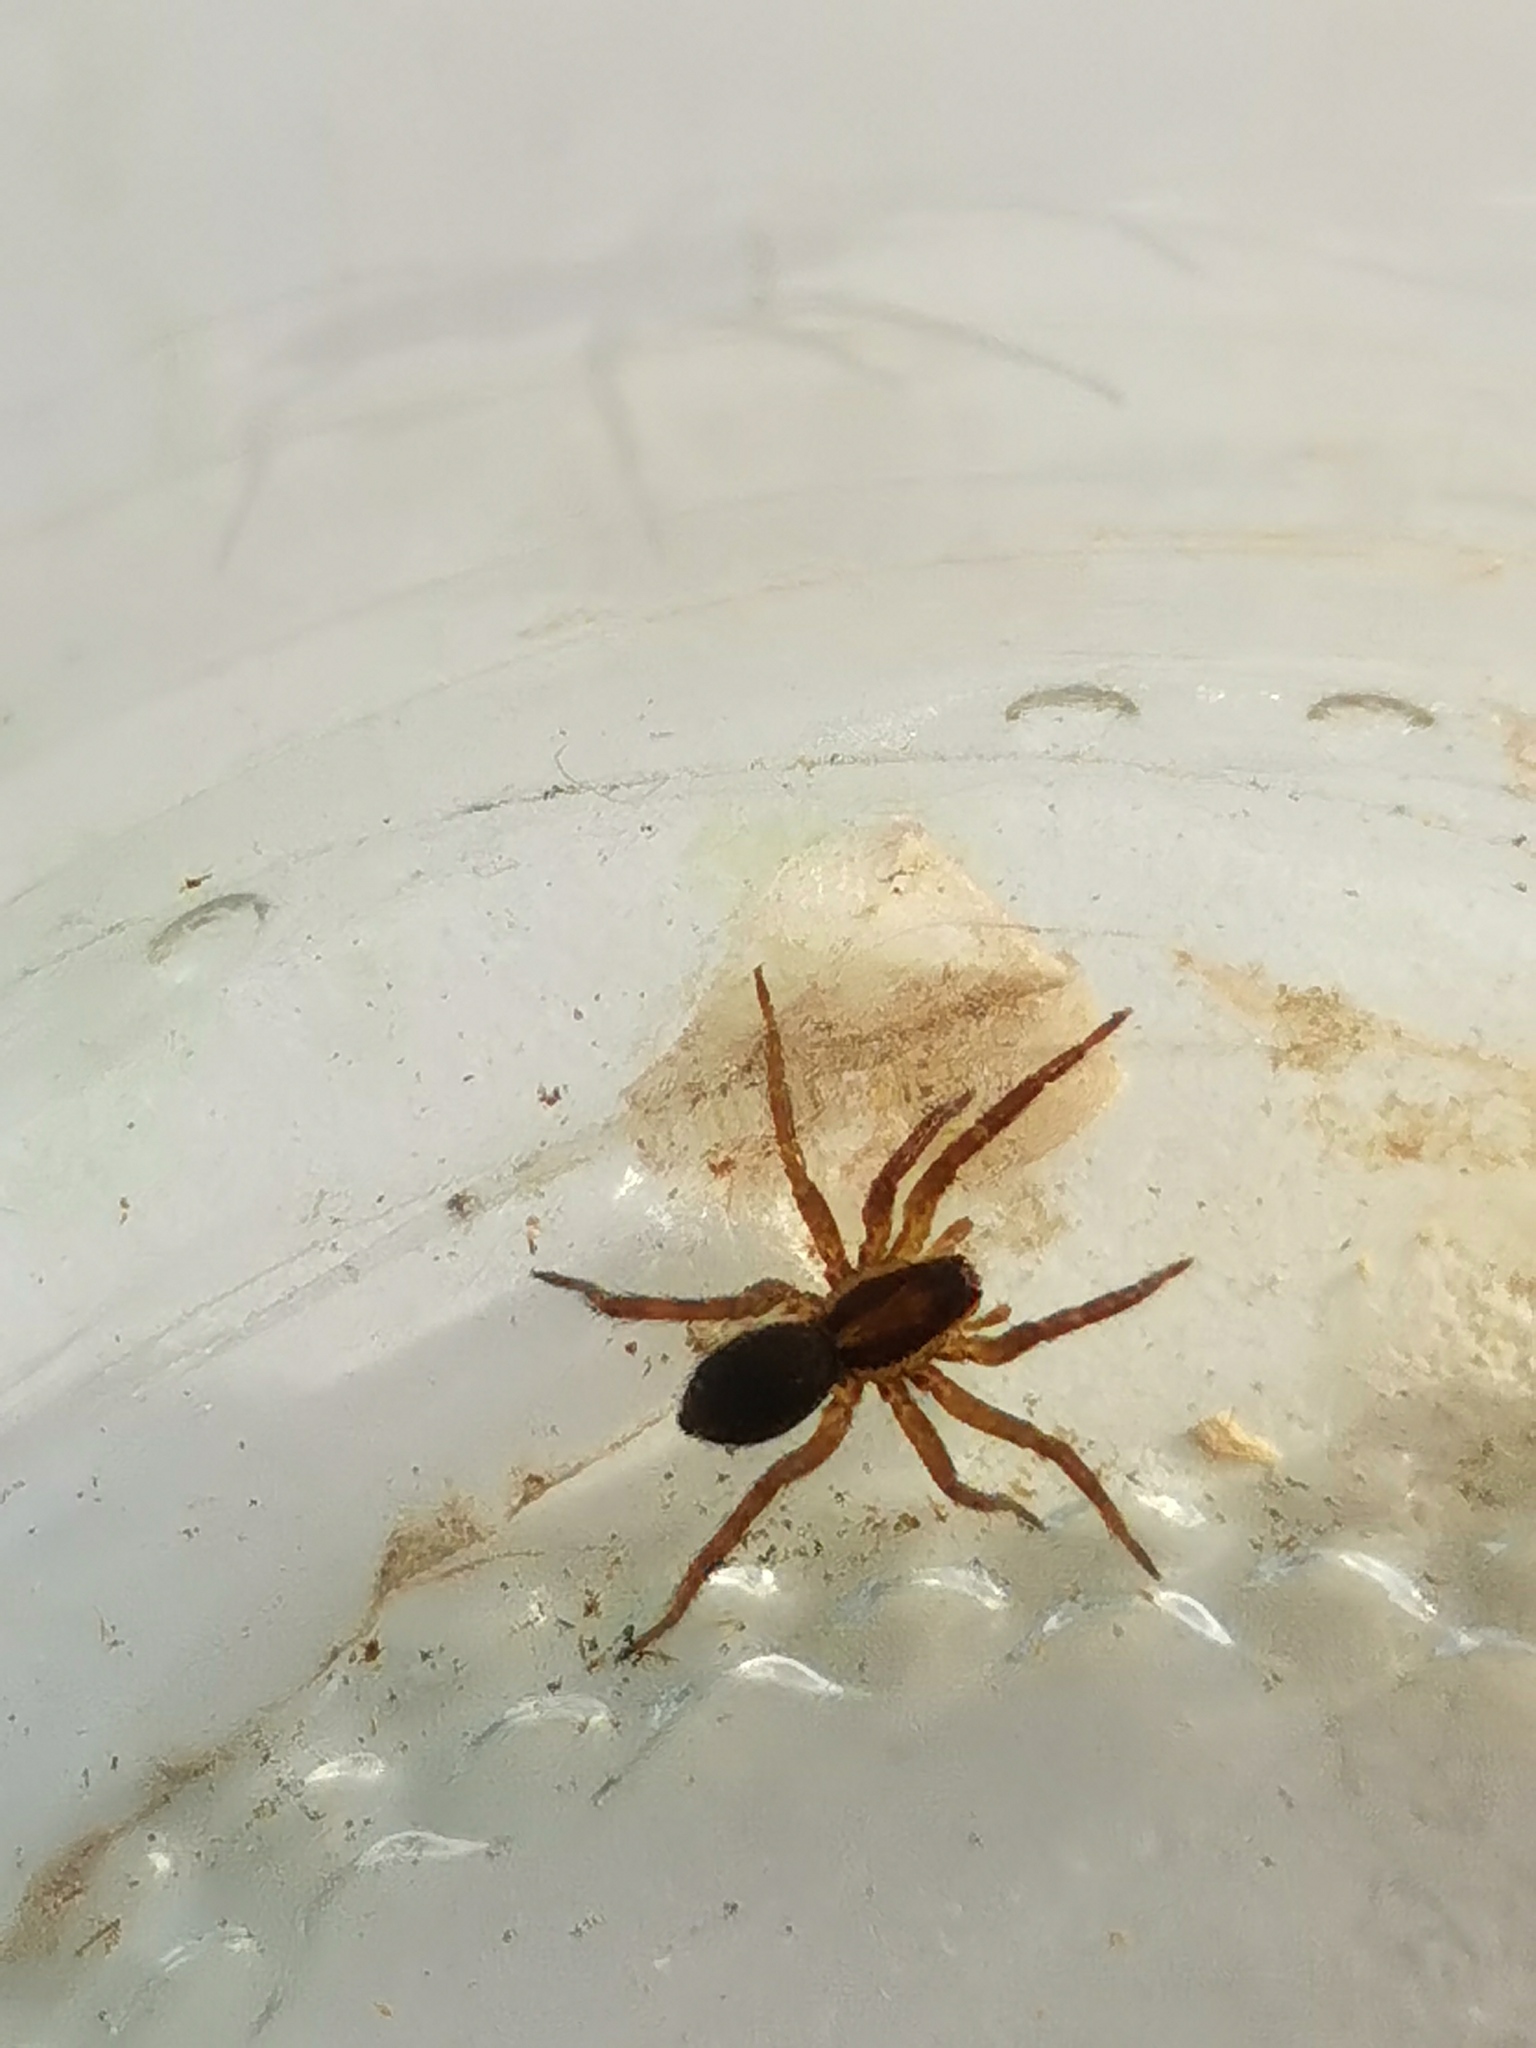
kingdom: Animalia
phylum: Arthropoda
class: Arachnida
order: Araneae
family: Lycosidae
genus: Hogna
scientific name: Hogna radiata
